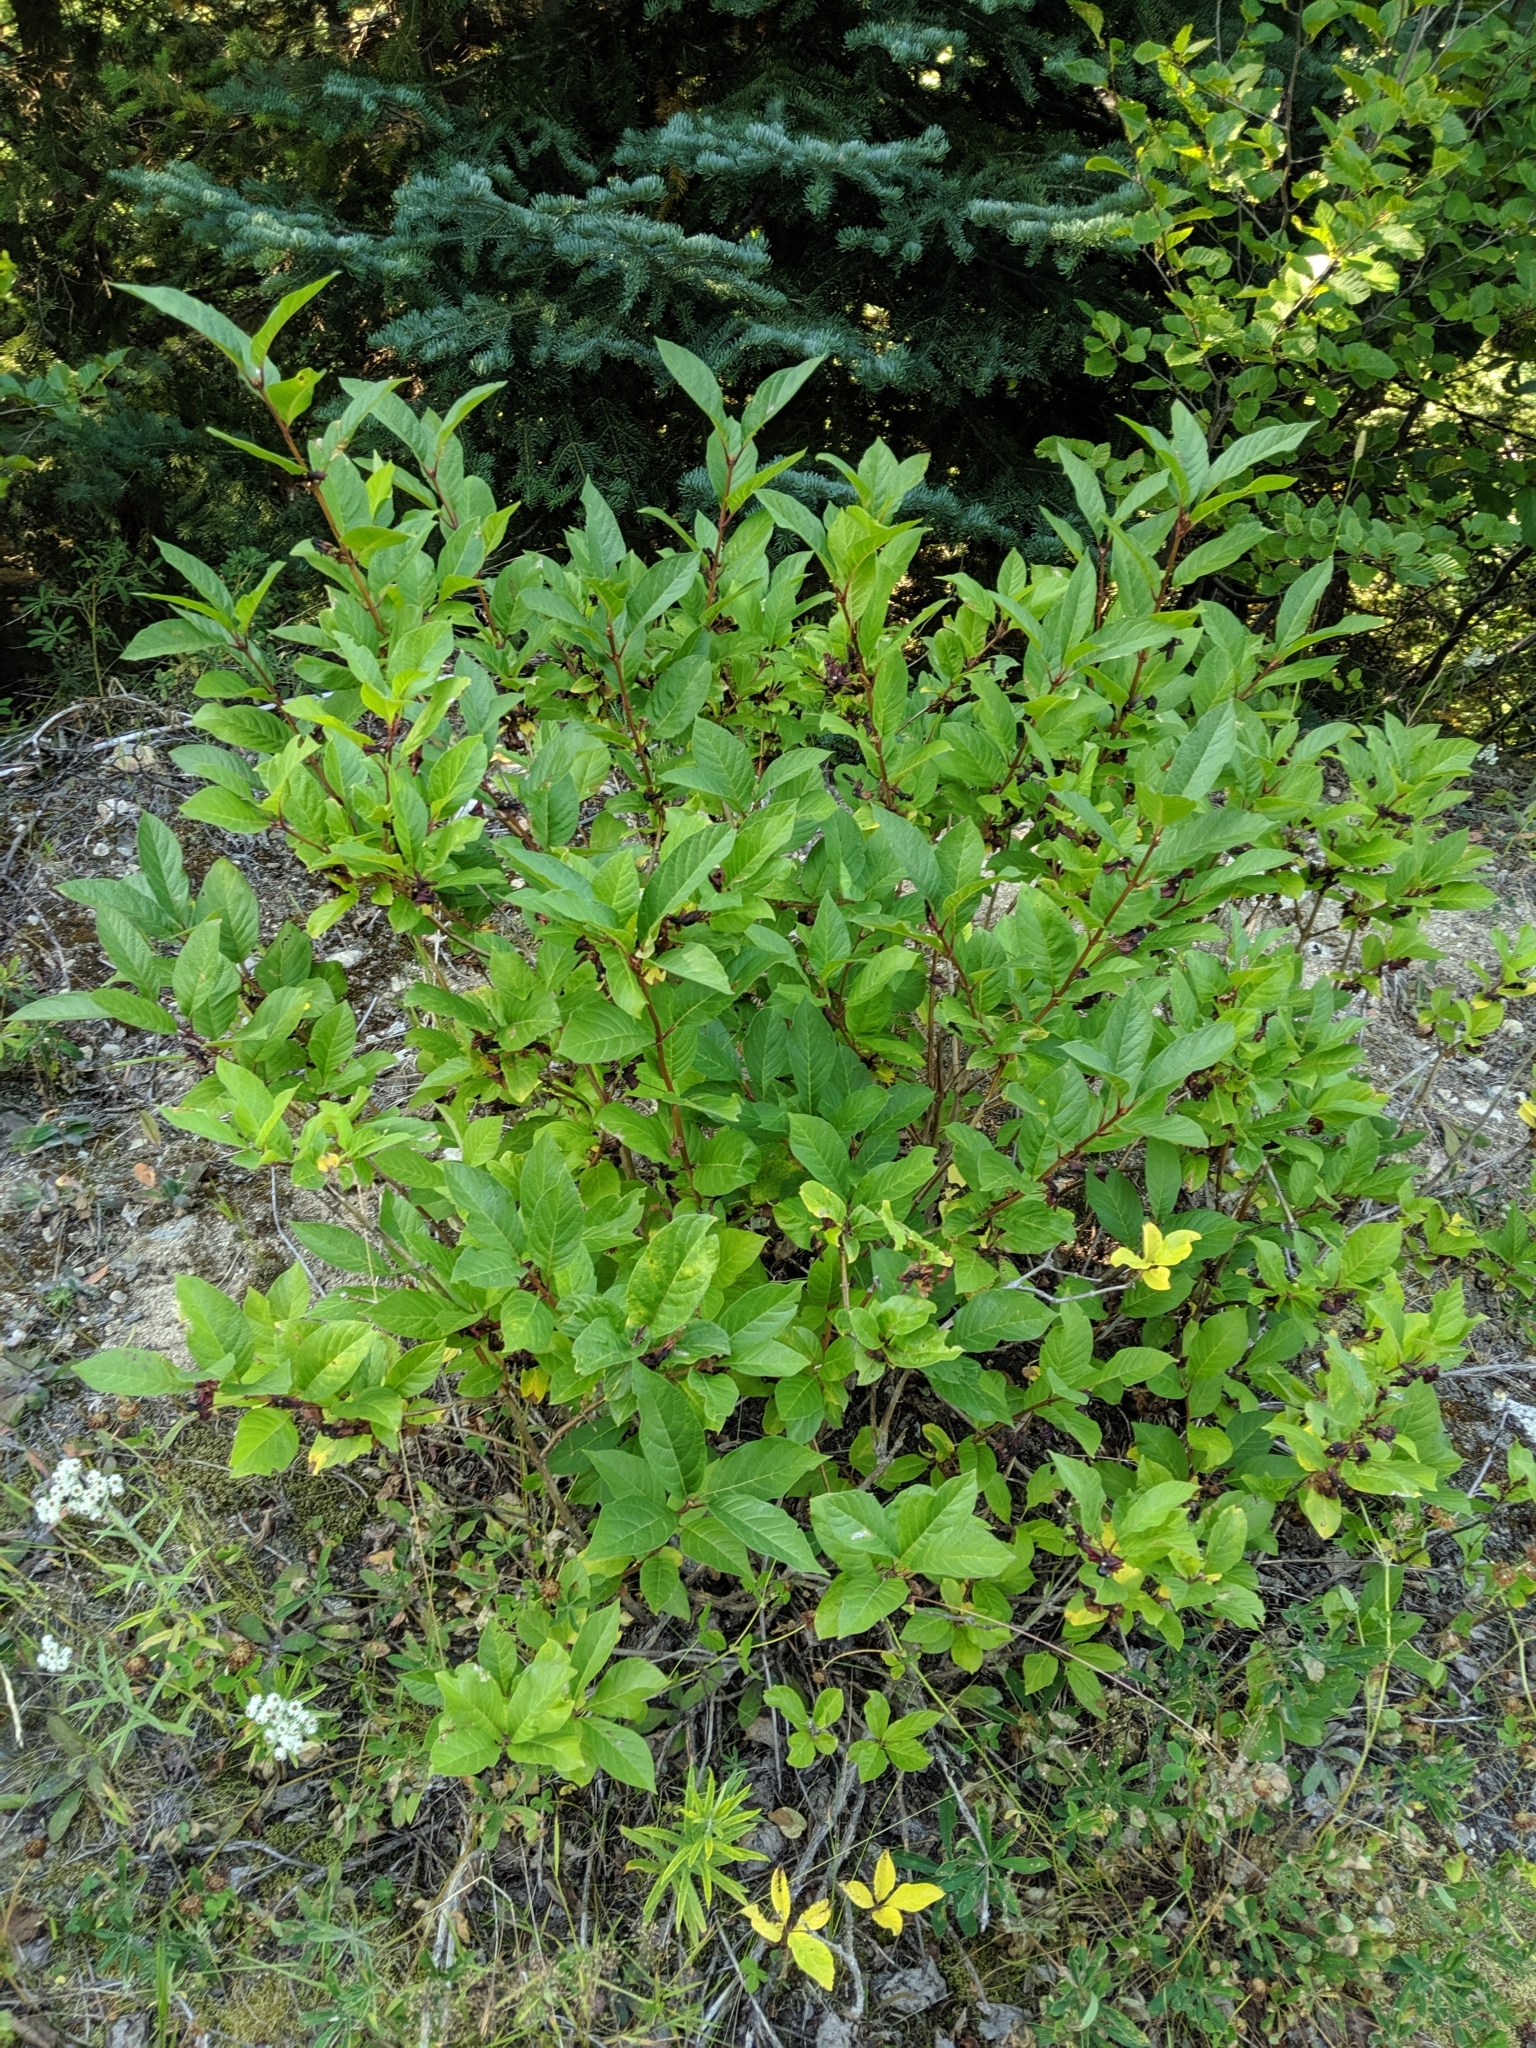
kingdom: Plantae
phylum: Tracheophyta
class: Magnoliopsida
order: Dipsacales
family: Caprifoliaceae
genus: Lonicera
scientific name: Lonicera involucrata
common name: Californian honeysuckle
